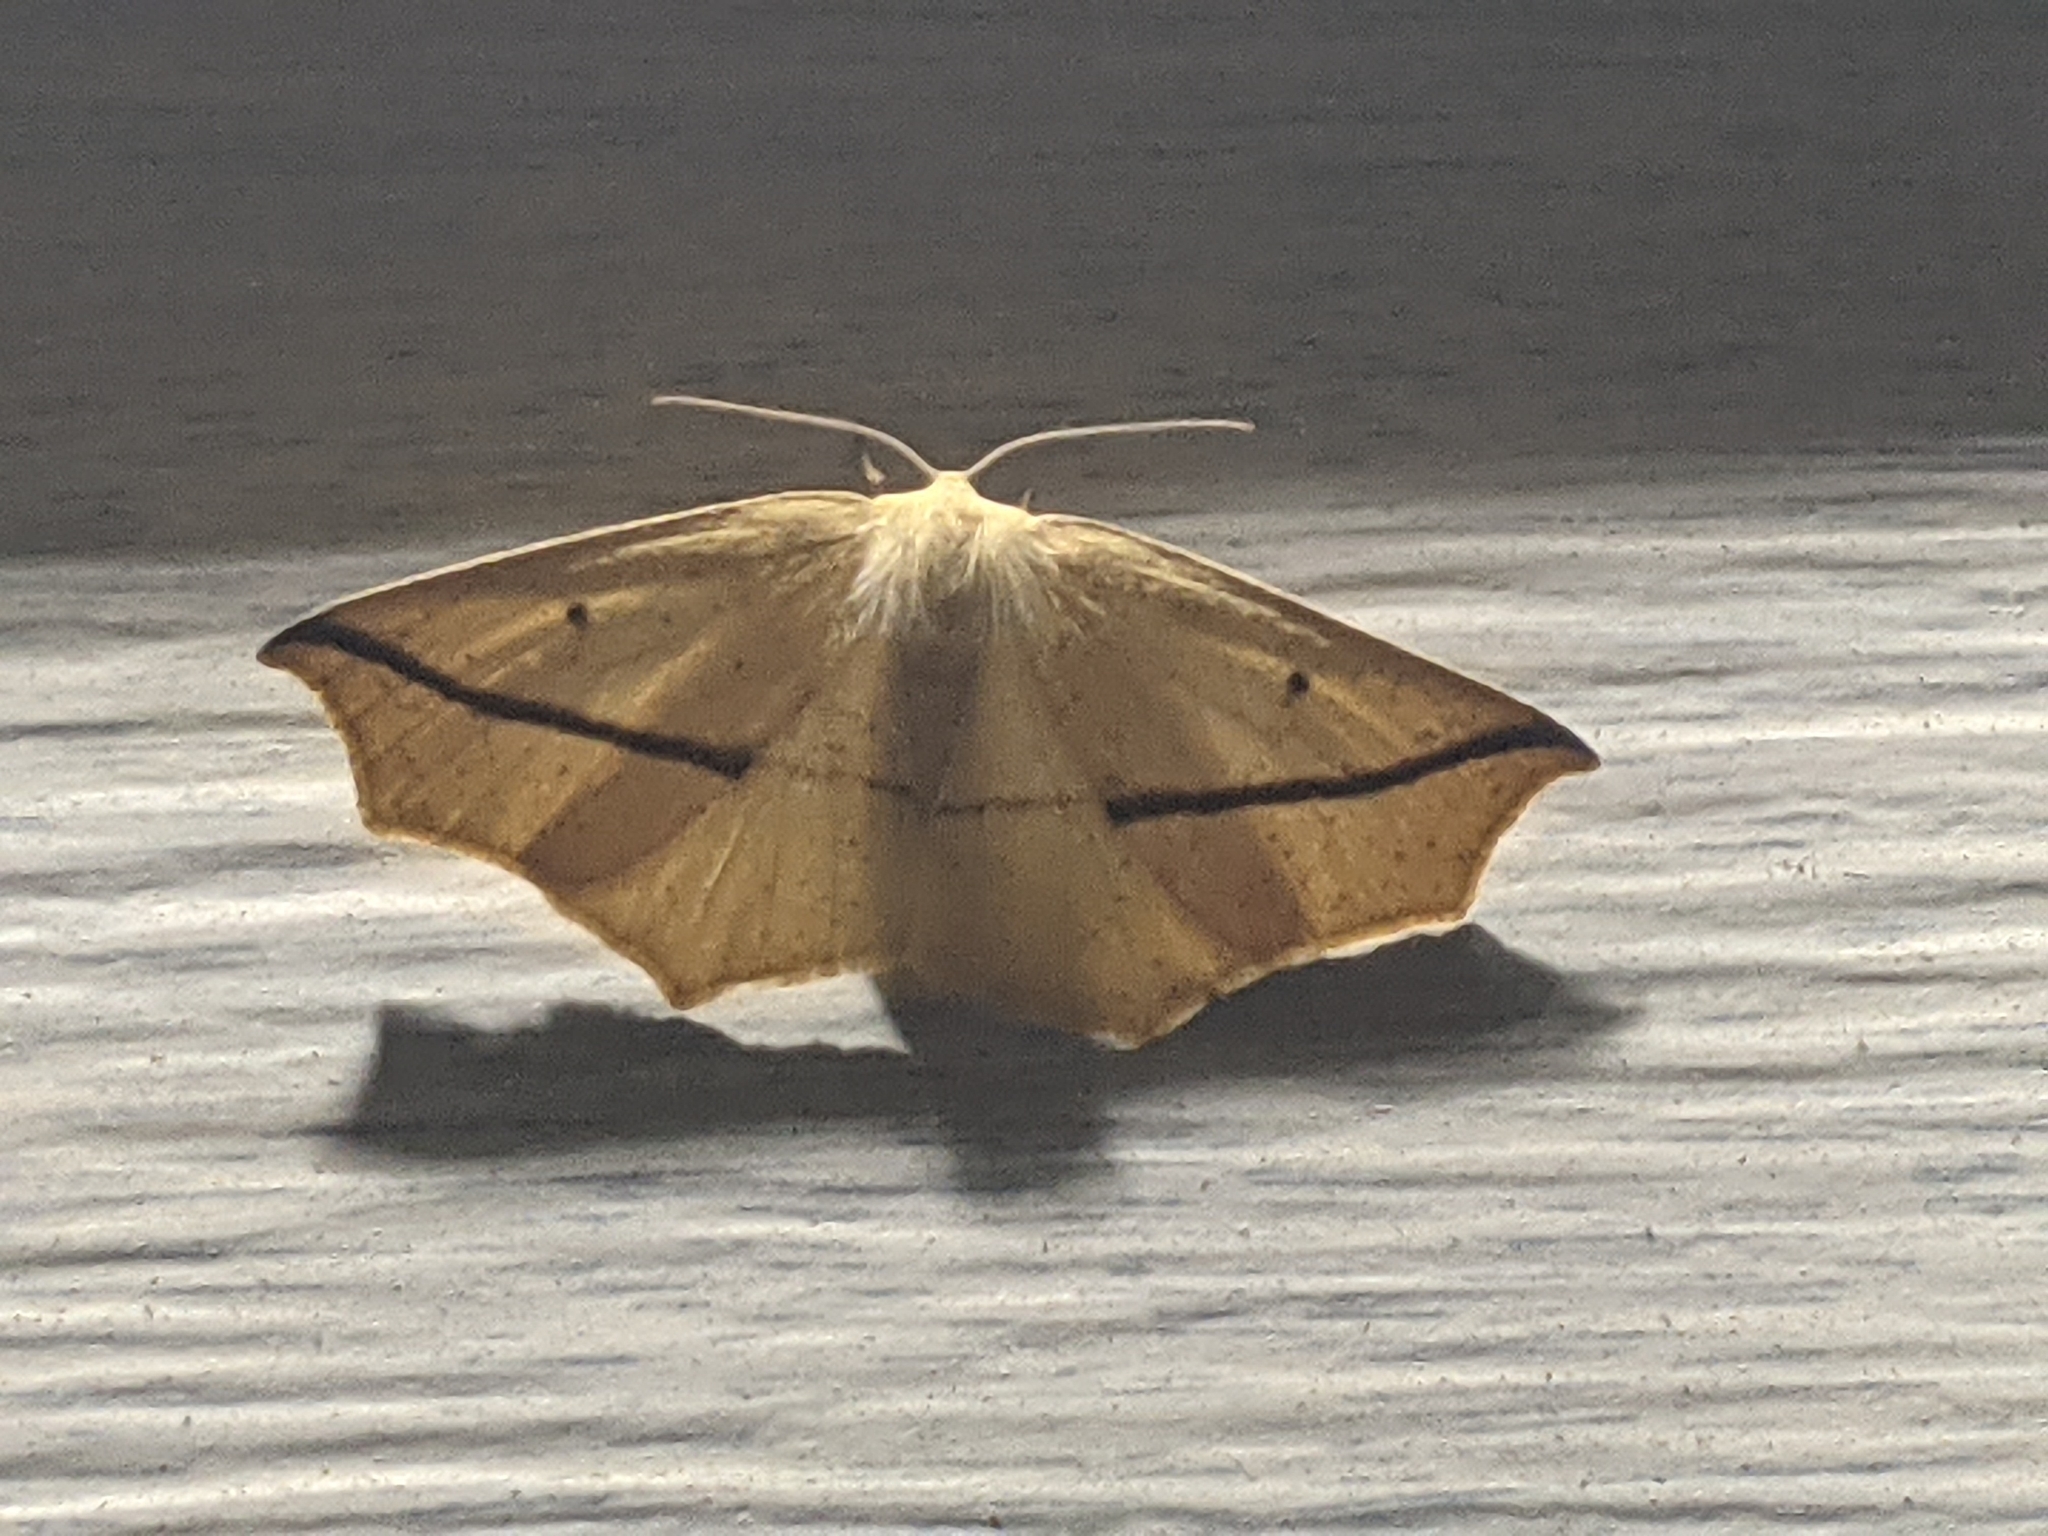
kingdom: Animalia
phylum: Arthropoda
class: Insecta
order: Lepidoptera
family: Geometridae
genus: Tetracis
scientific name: Tetracis crocallata
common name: Yellow slant-line
